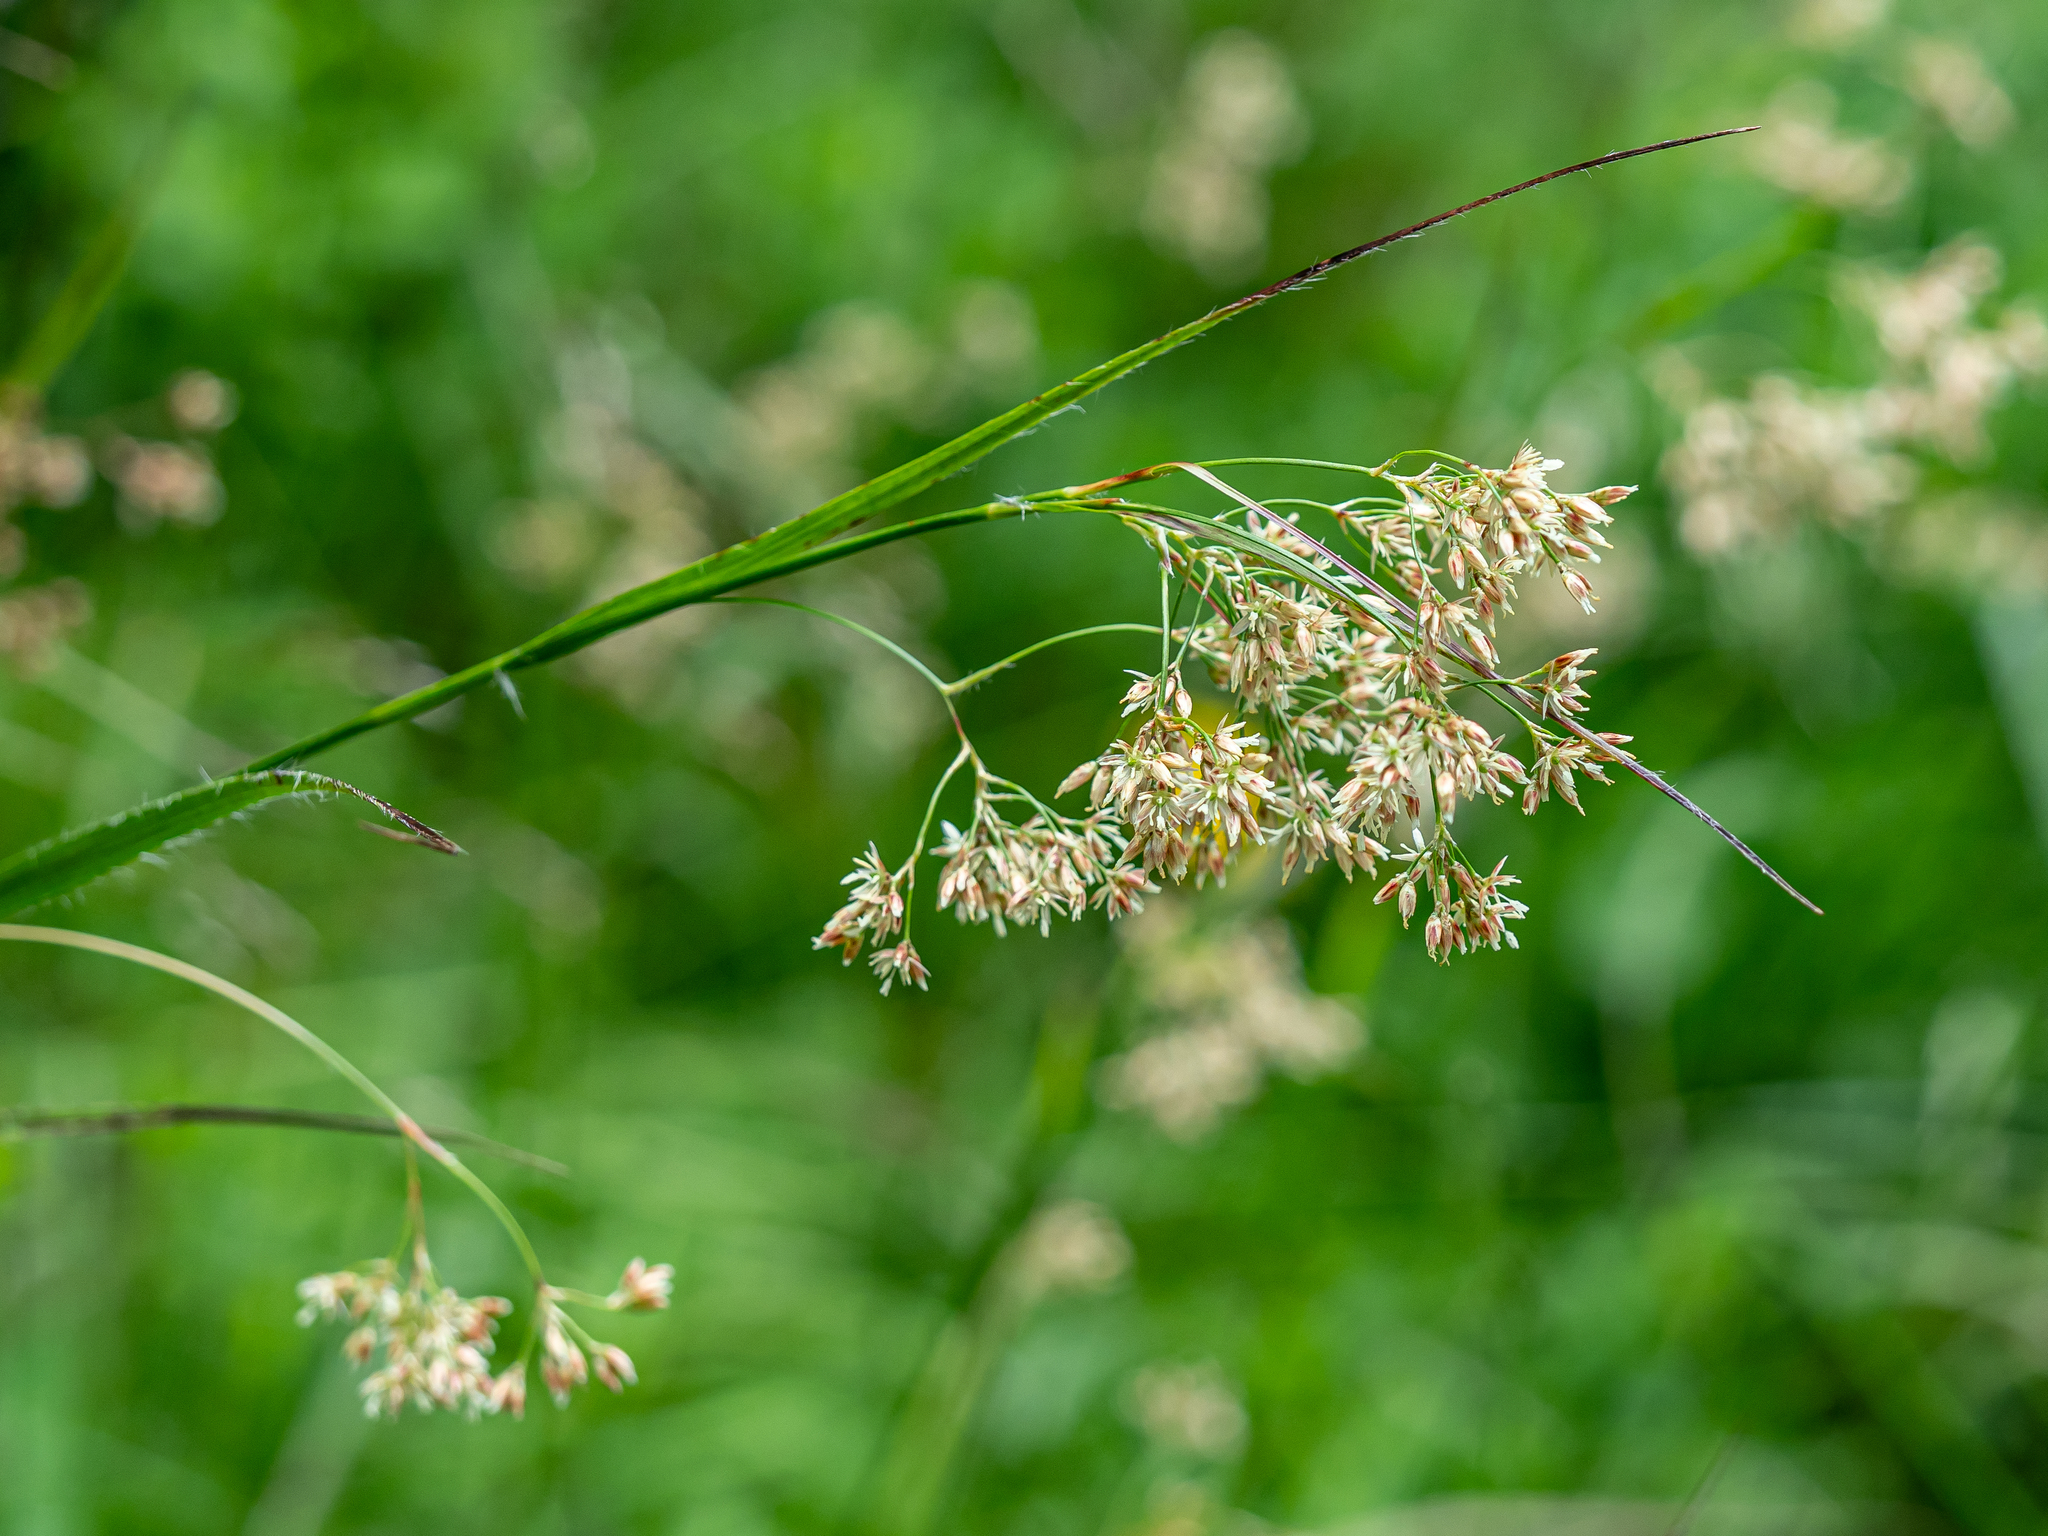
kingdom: Plantae
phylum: Tracheophyta
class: Liliopsida
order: Poales
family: Juncaceae
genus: Luzula
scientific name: Luzula luzuloides
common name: White wood-rush
